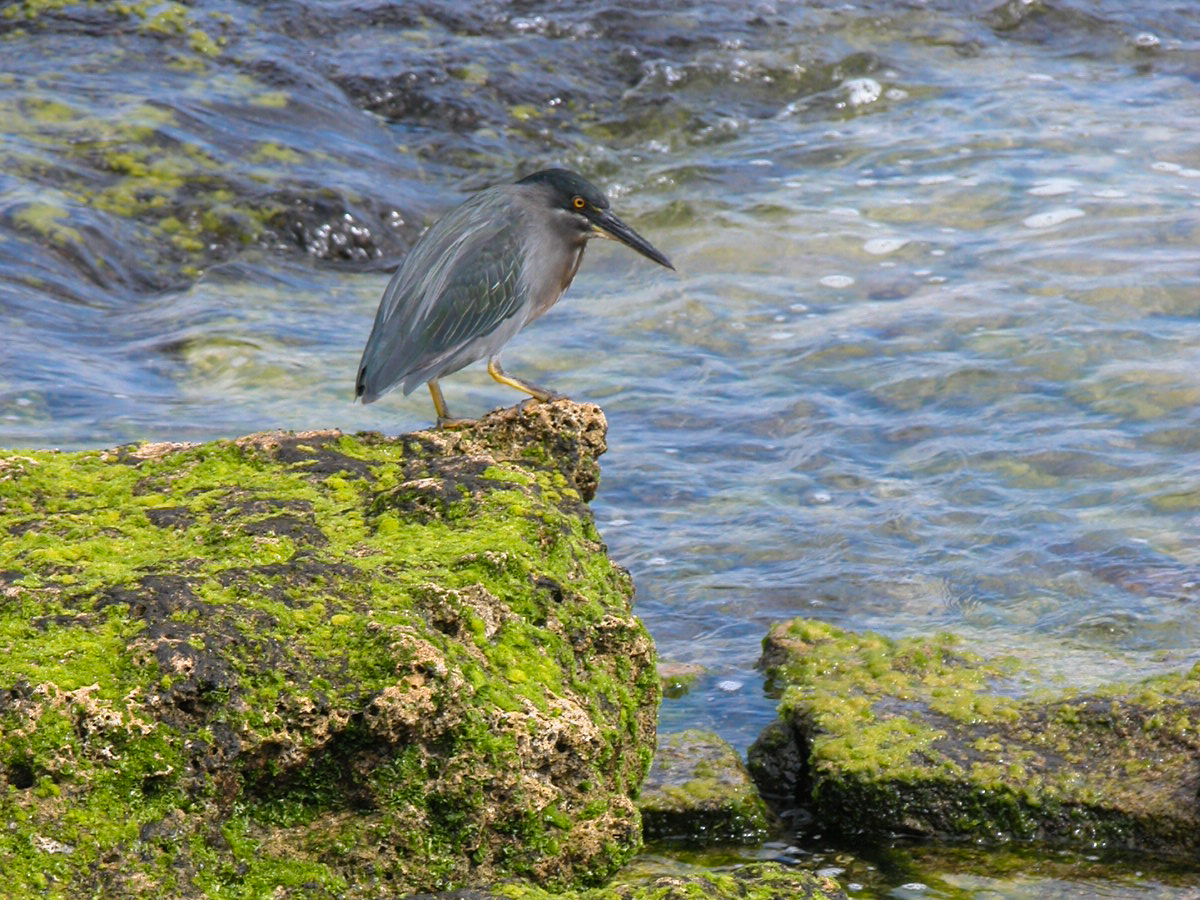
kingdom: Animalia
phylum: Chordata
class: Aves
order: Pelecaniformes
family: Ardeidae
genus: Butorides
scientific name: Butorides striata
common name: Striated heron
